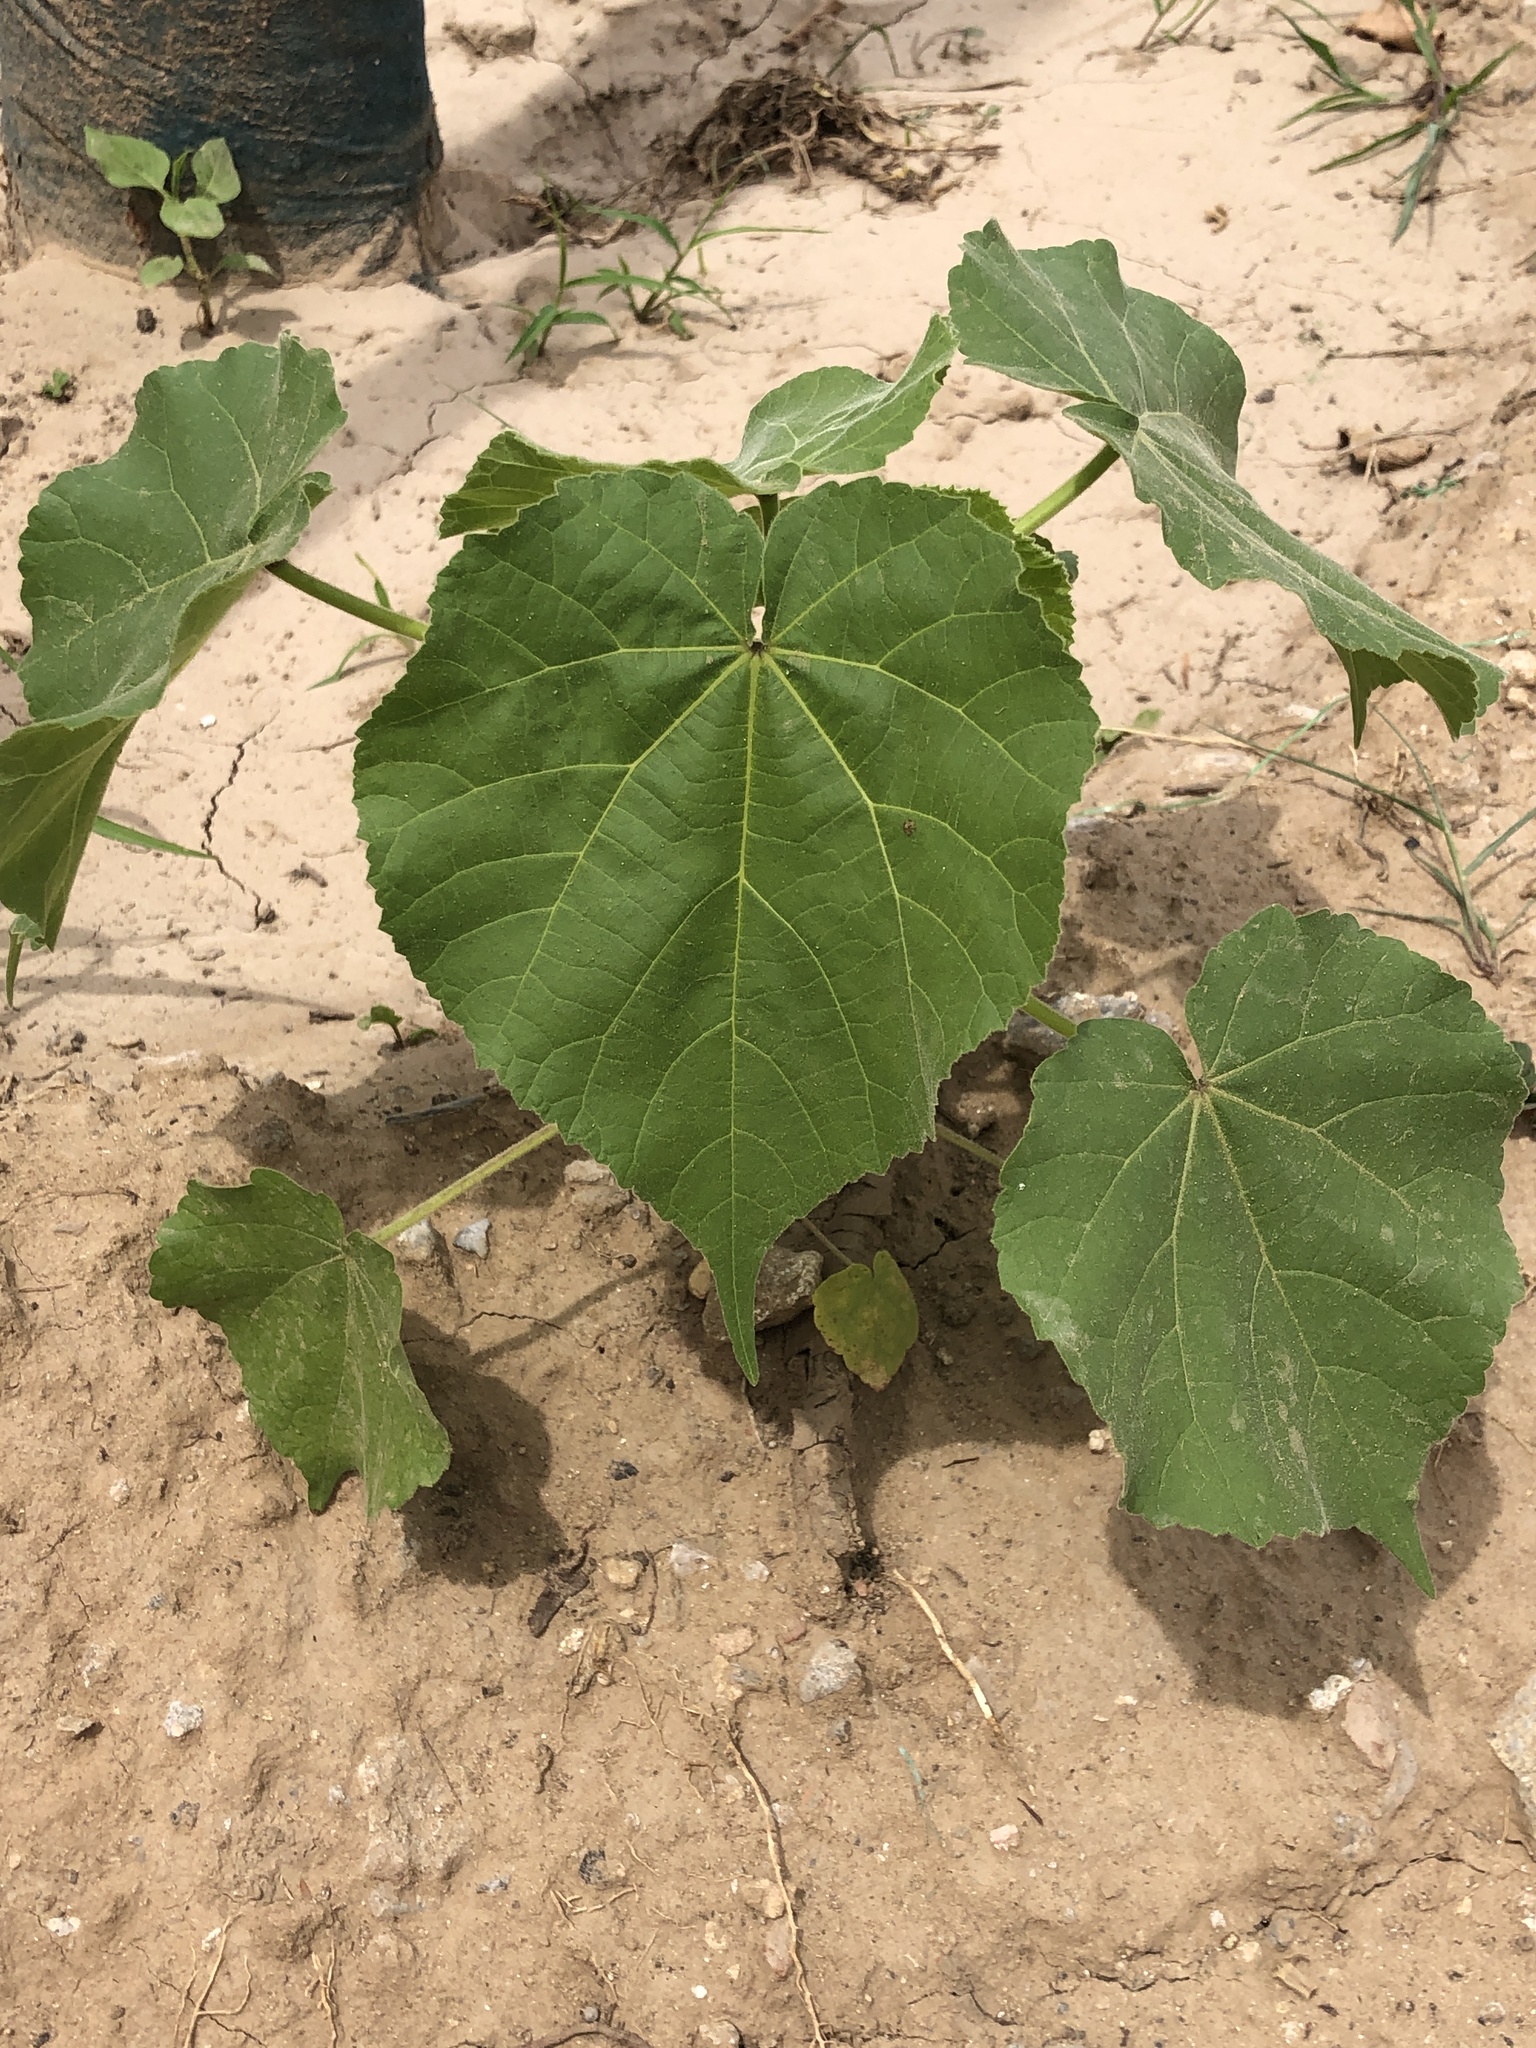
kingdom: Plantae
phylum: Tracheophyta
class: Magnoliopsida
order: Malvales
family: Malvaceae
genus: Abutilon
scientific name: Abutilon theophrasti
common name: Velvetleaf
